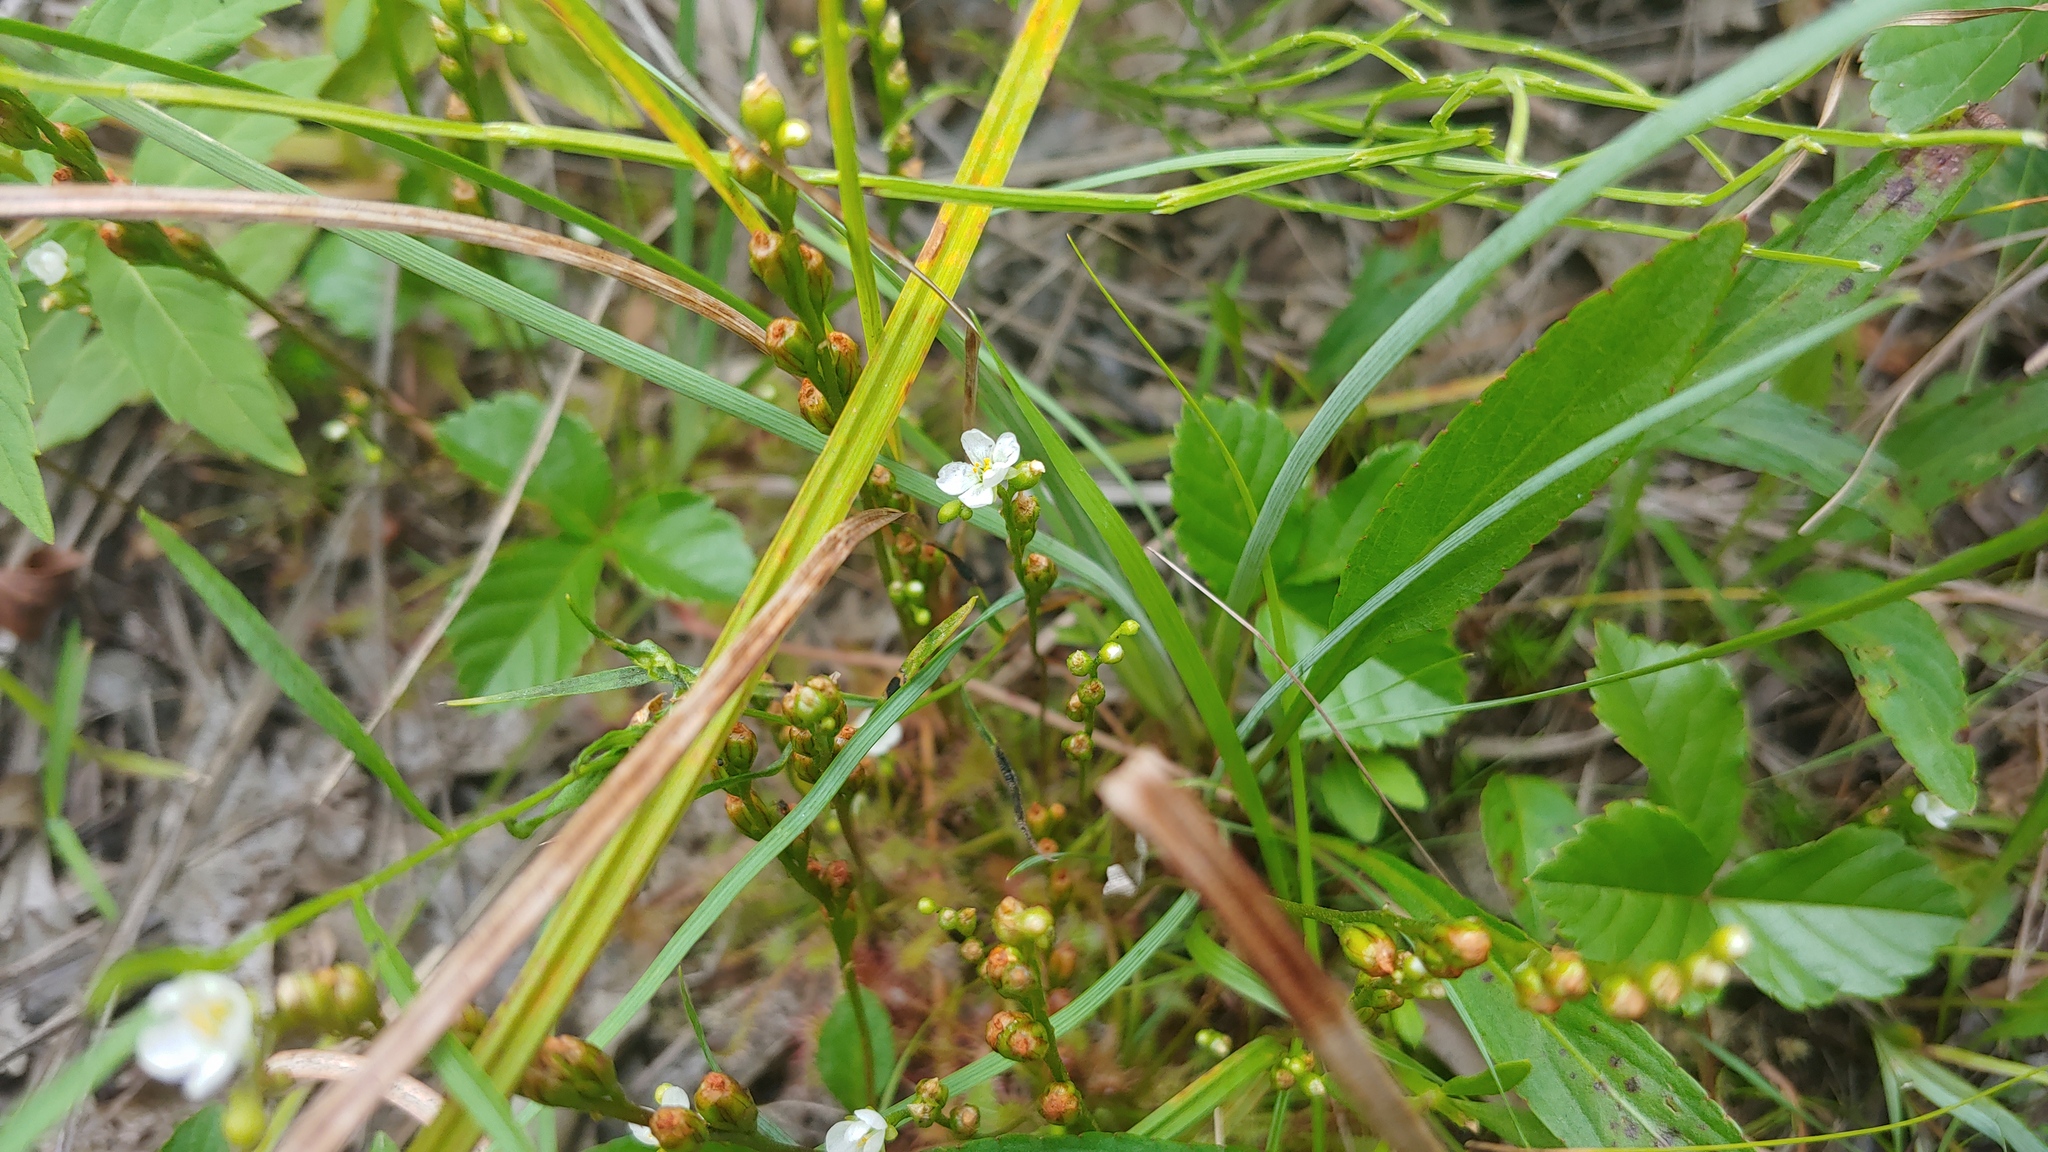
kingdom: Plantae
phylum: Tracheophyta
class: Magnoliopsida
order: Caryophyllales
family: Droseraceae
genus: Drosera
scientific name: Drosera intermedia
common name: Oblong-leaved sundew
